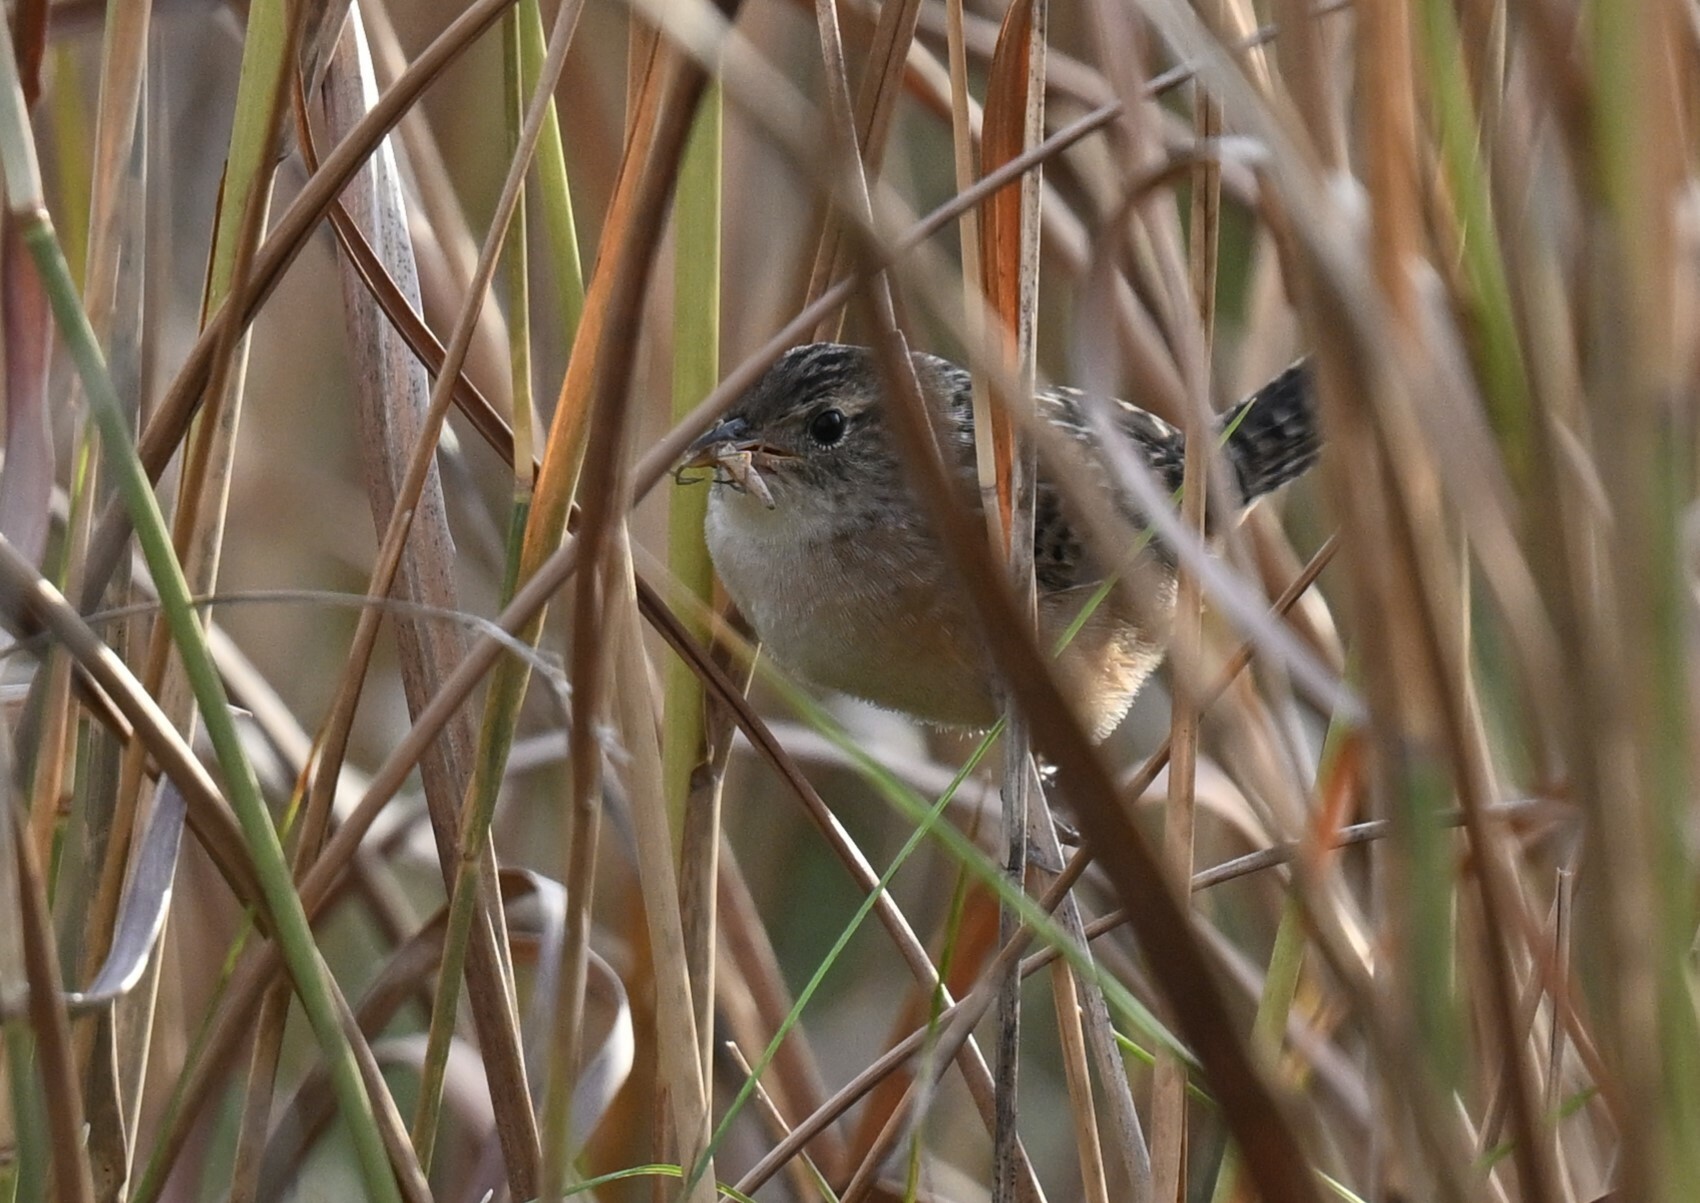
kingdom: Animalia
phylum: Chordata
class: Aves
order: Passeriformes
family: Troglodytidae
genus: Cistothorus
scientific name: Cistothorus platensis
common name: Sedge wren
